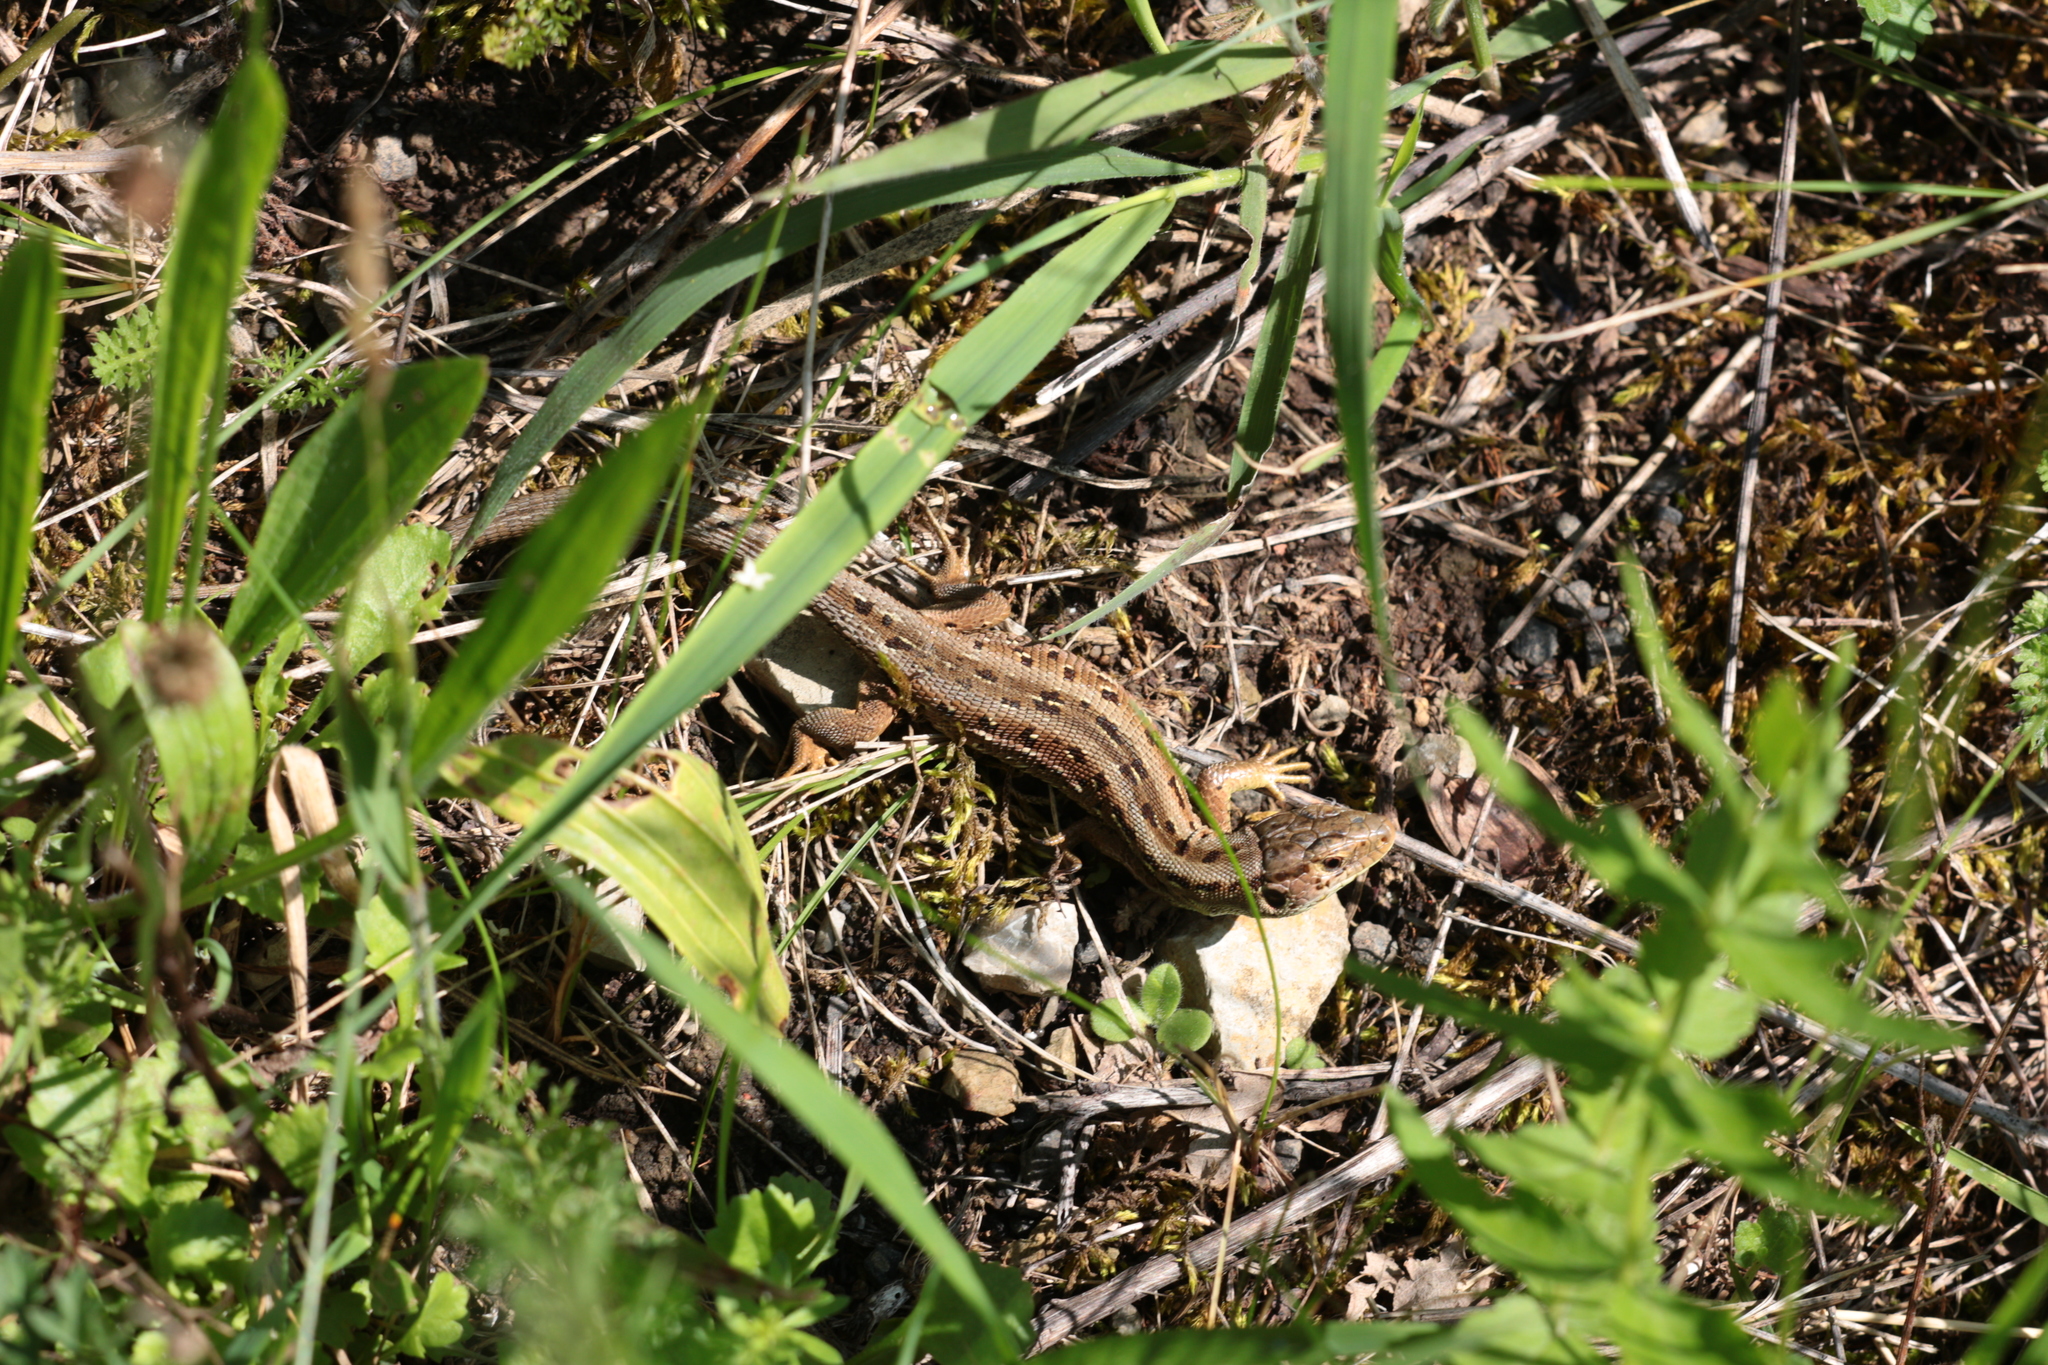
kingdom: Animalia
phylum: Chordata
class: Squamata
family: Lacertidae
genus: Lacerta
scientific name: Lacerta agilis
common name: Sand lizard
